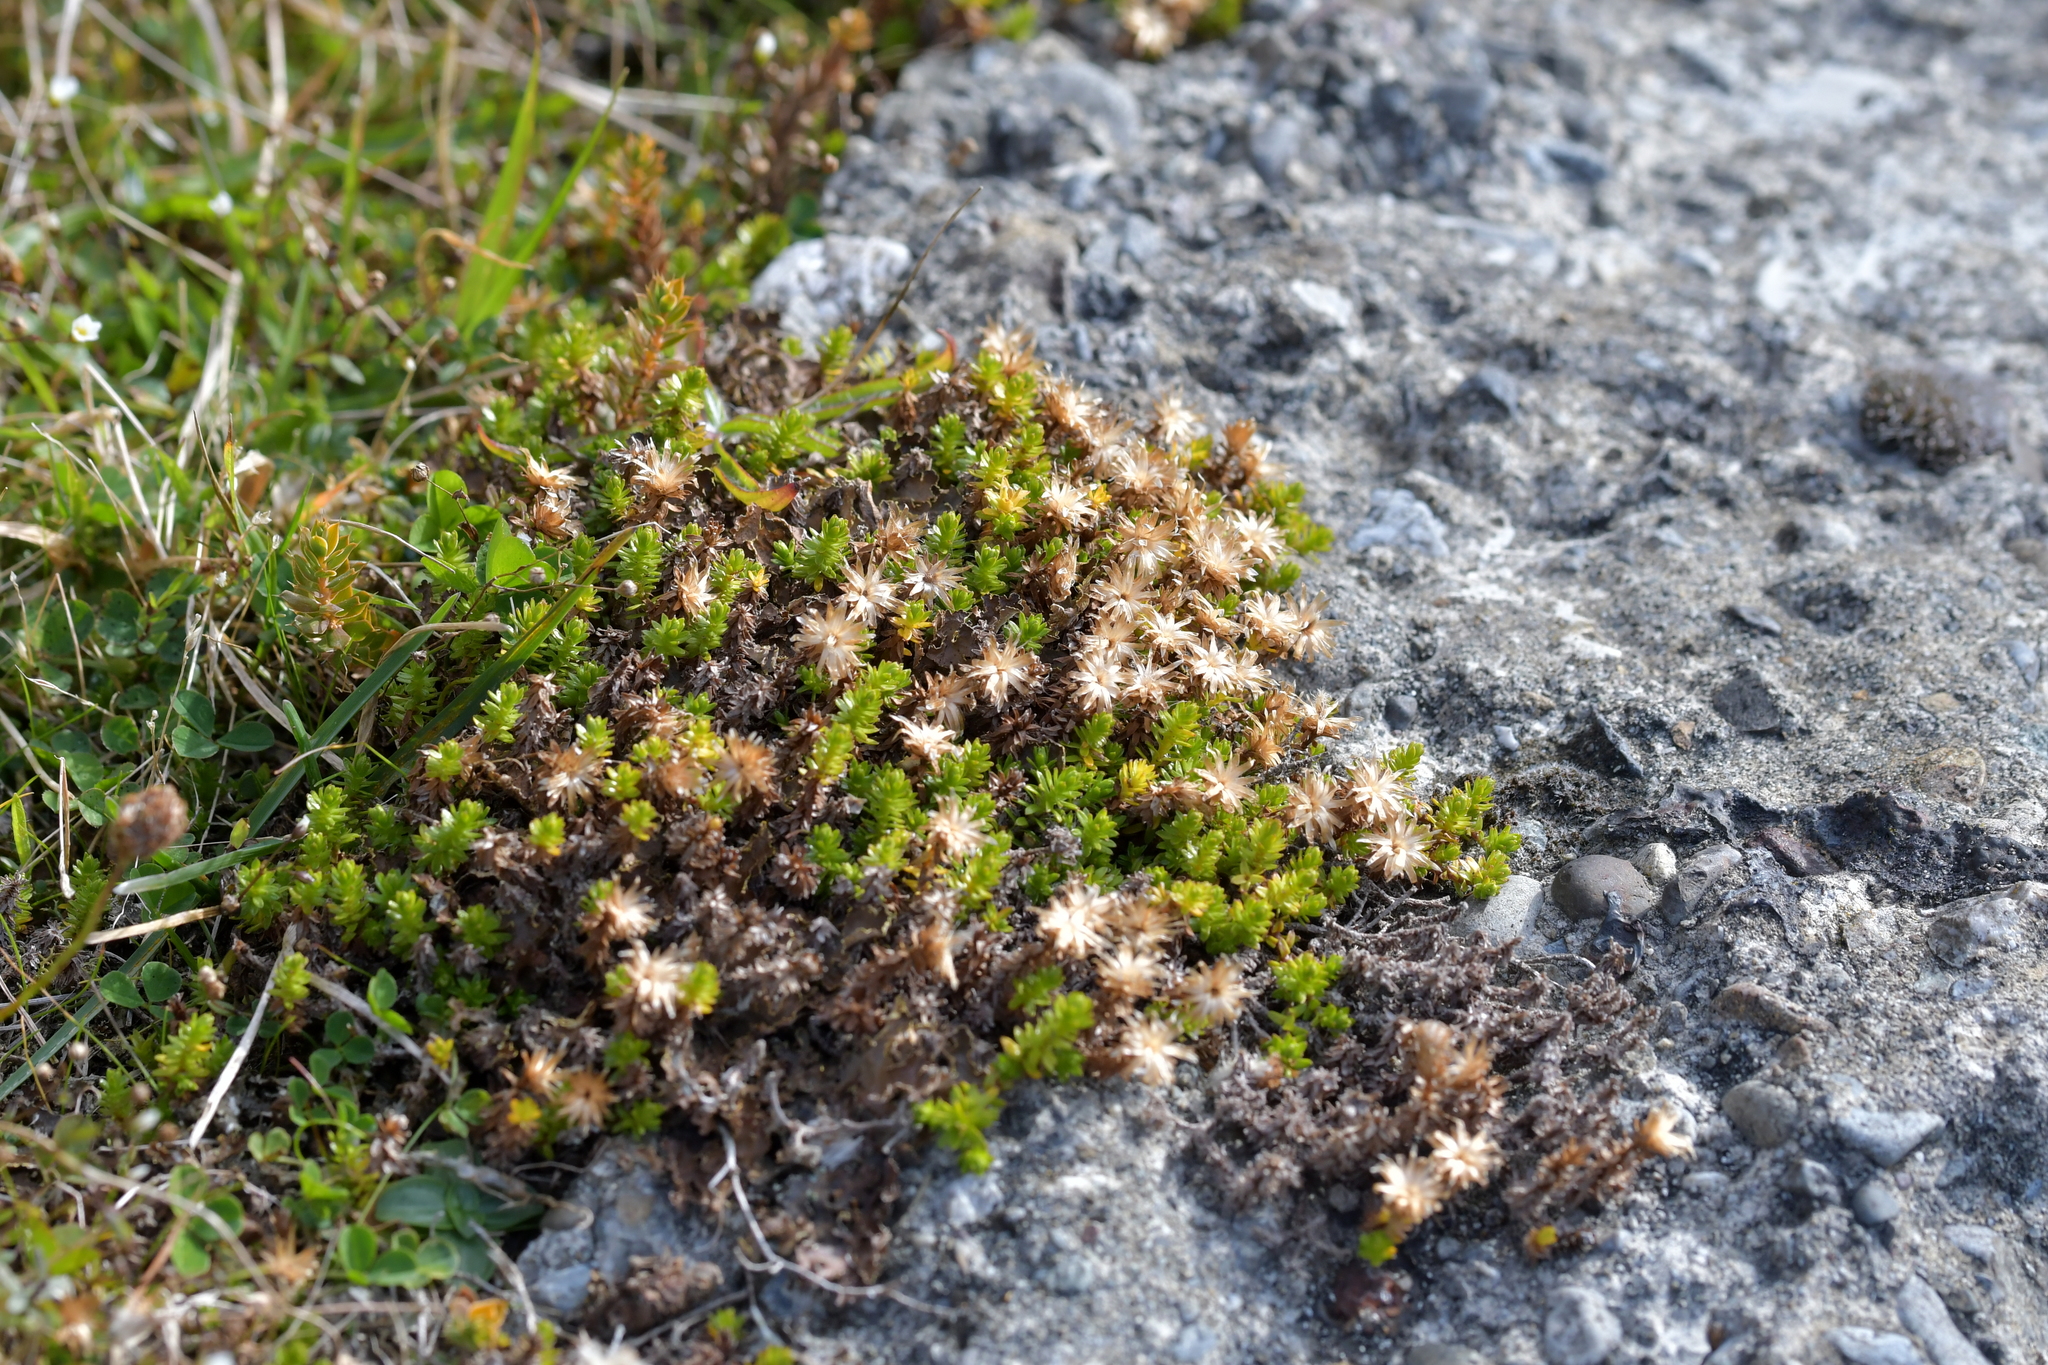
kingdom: Plantae
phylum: Tracheophyta
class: Magnoliopsida
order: Asterales
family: Asteraceae
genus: Raoulia
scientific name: Raoulia glabra
